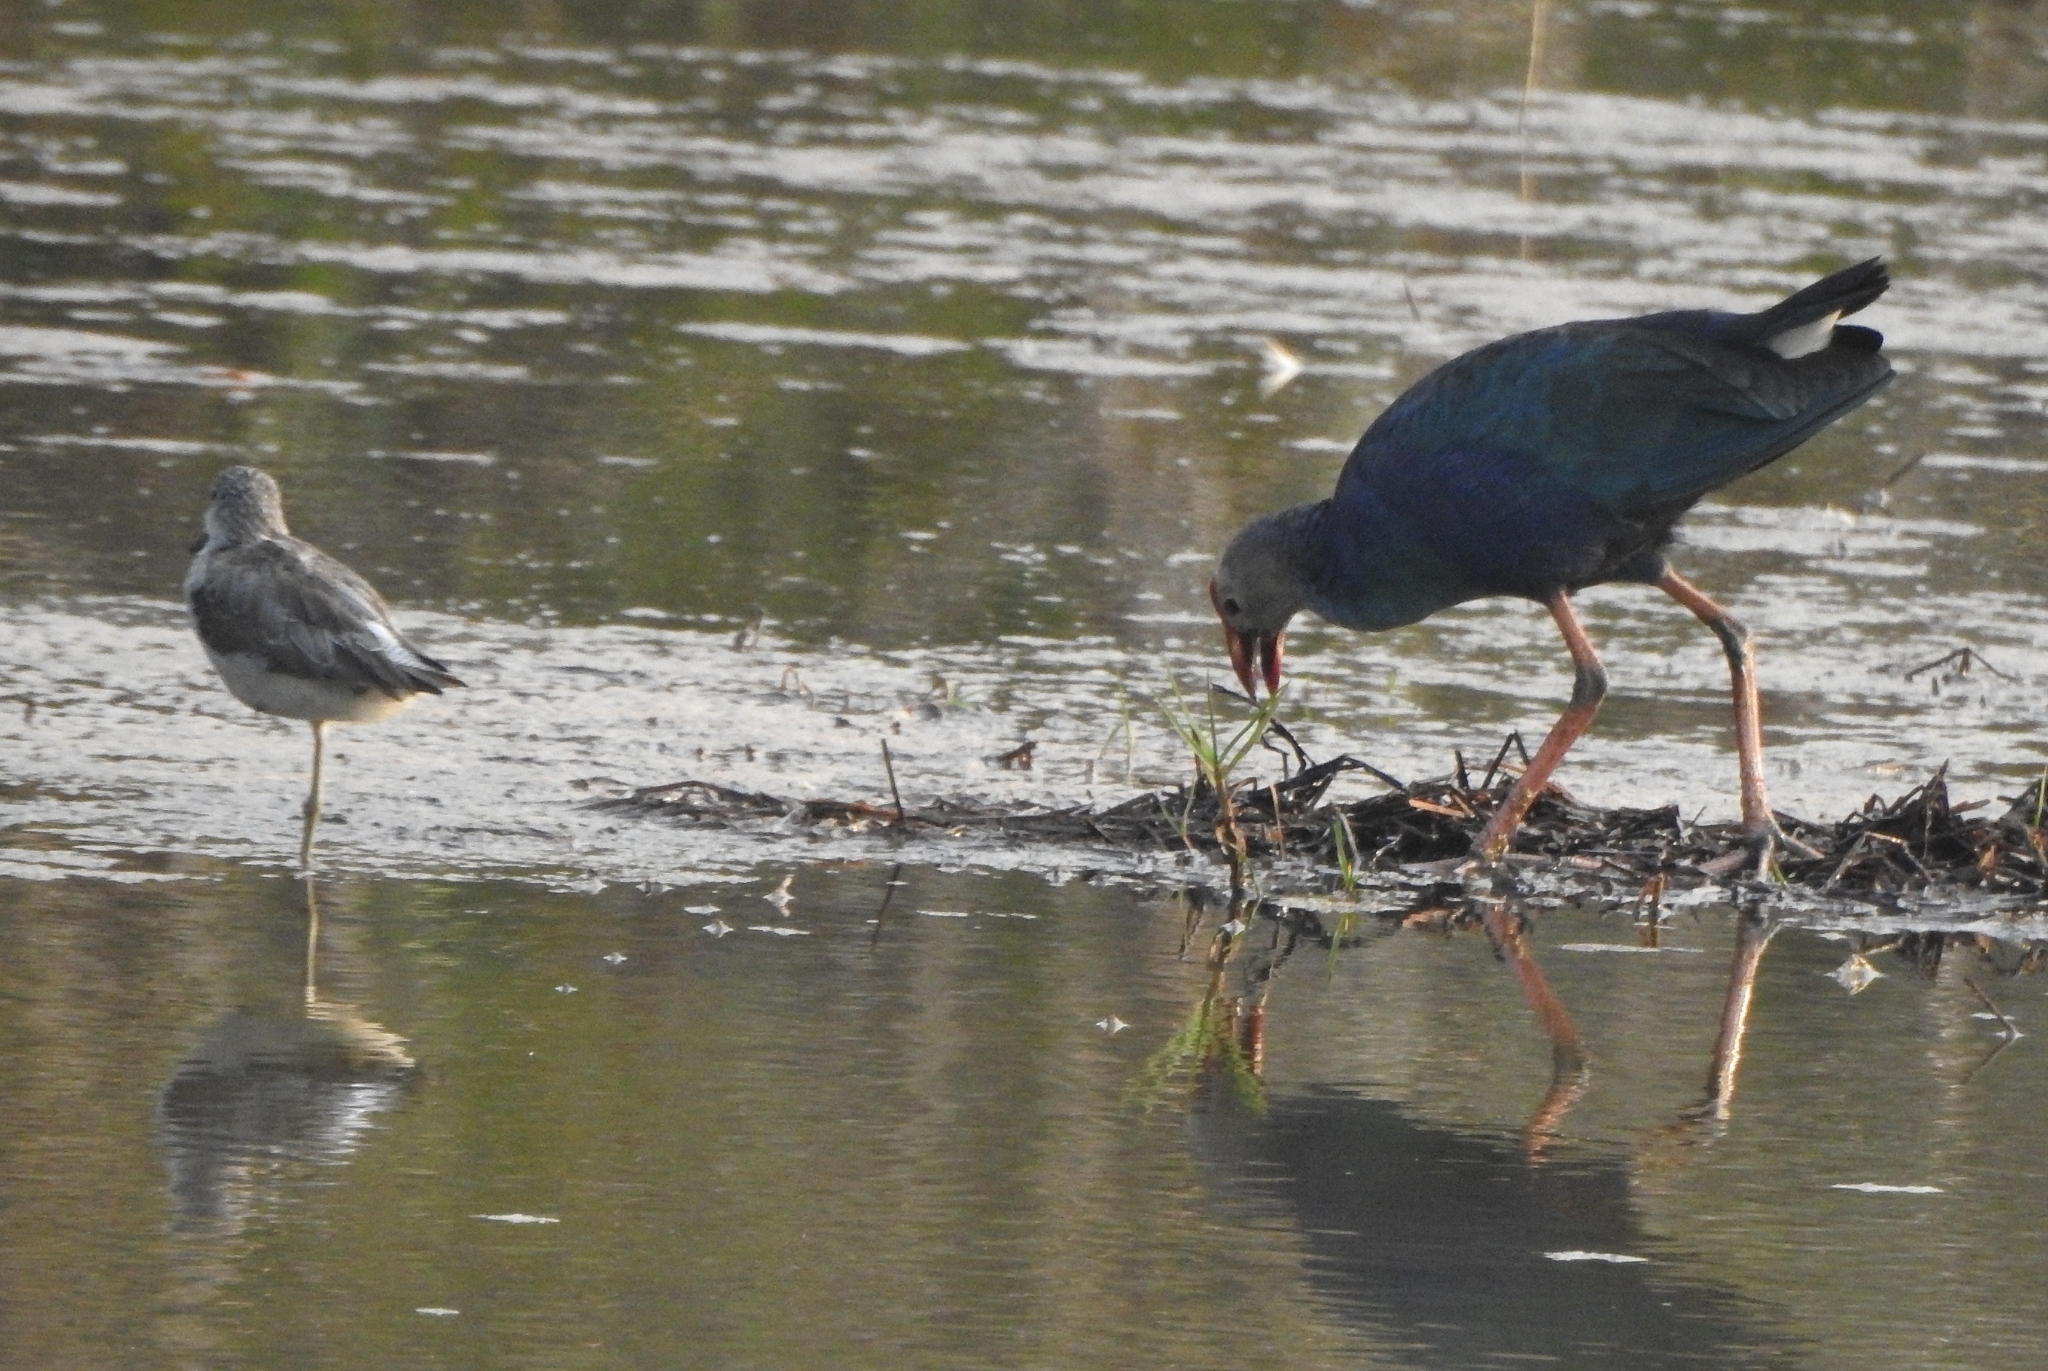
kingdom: Animalia
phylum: Chordata
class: Aves
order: Gruiformes
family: Rallidae
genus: Porphyrio
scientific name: Porphyrio porphyrio
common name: Purple swamphen
